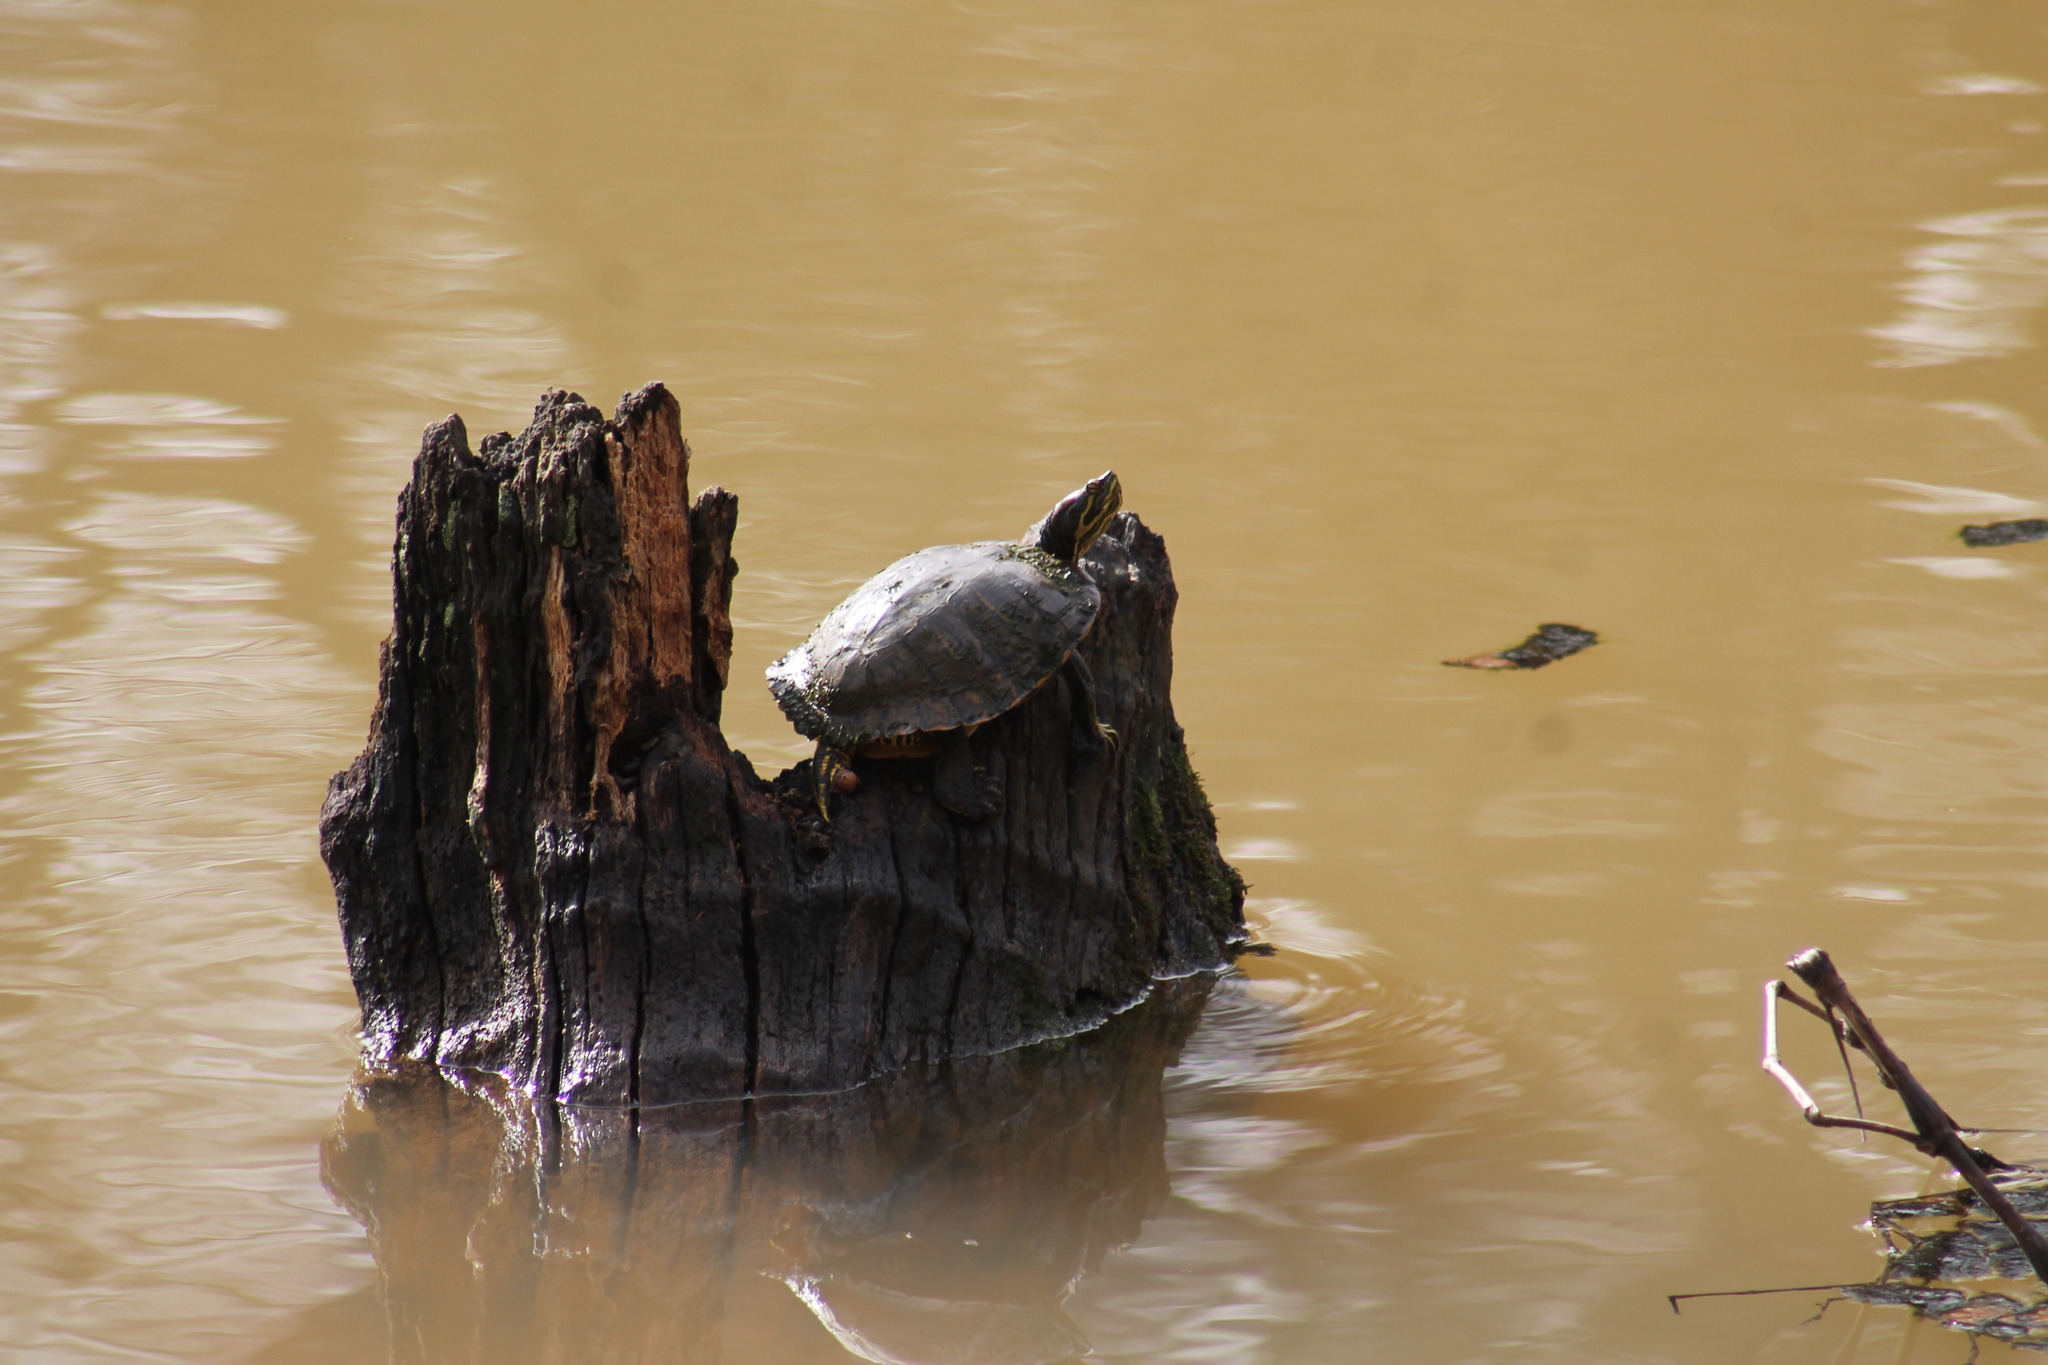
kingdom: Animalia
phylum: Chordata
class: Testudines
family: Emydidae
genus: Trachemys
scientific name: Trachemys scripta
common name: Slider
